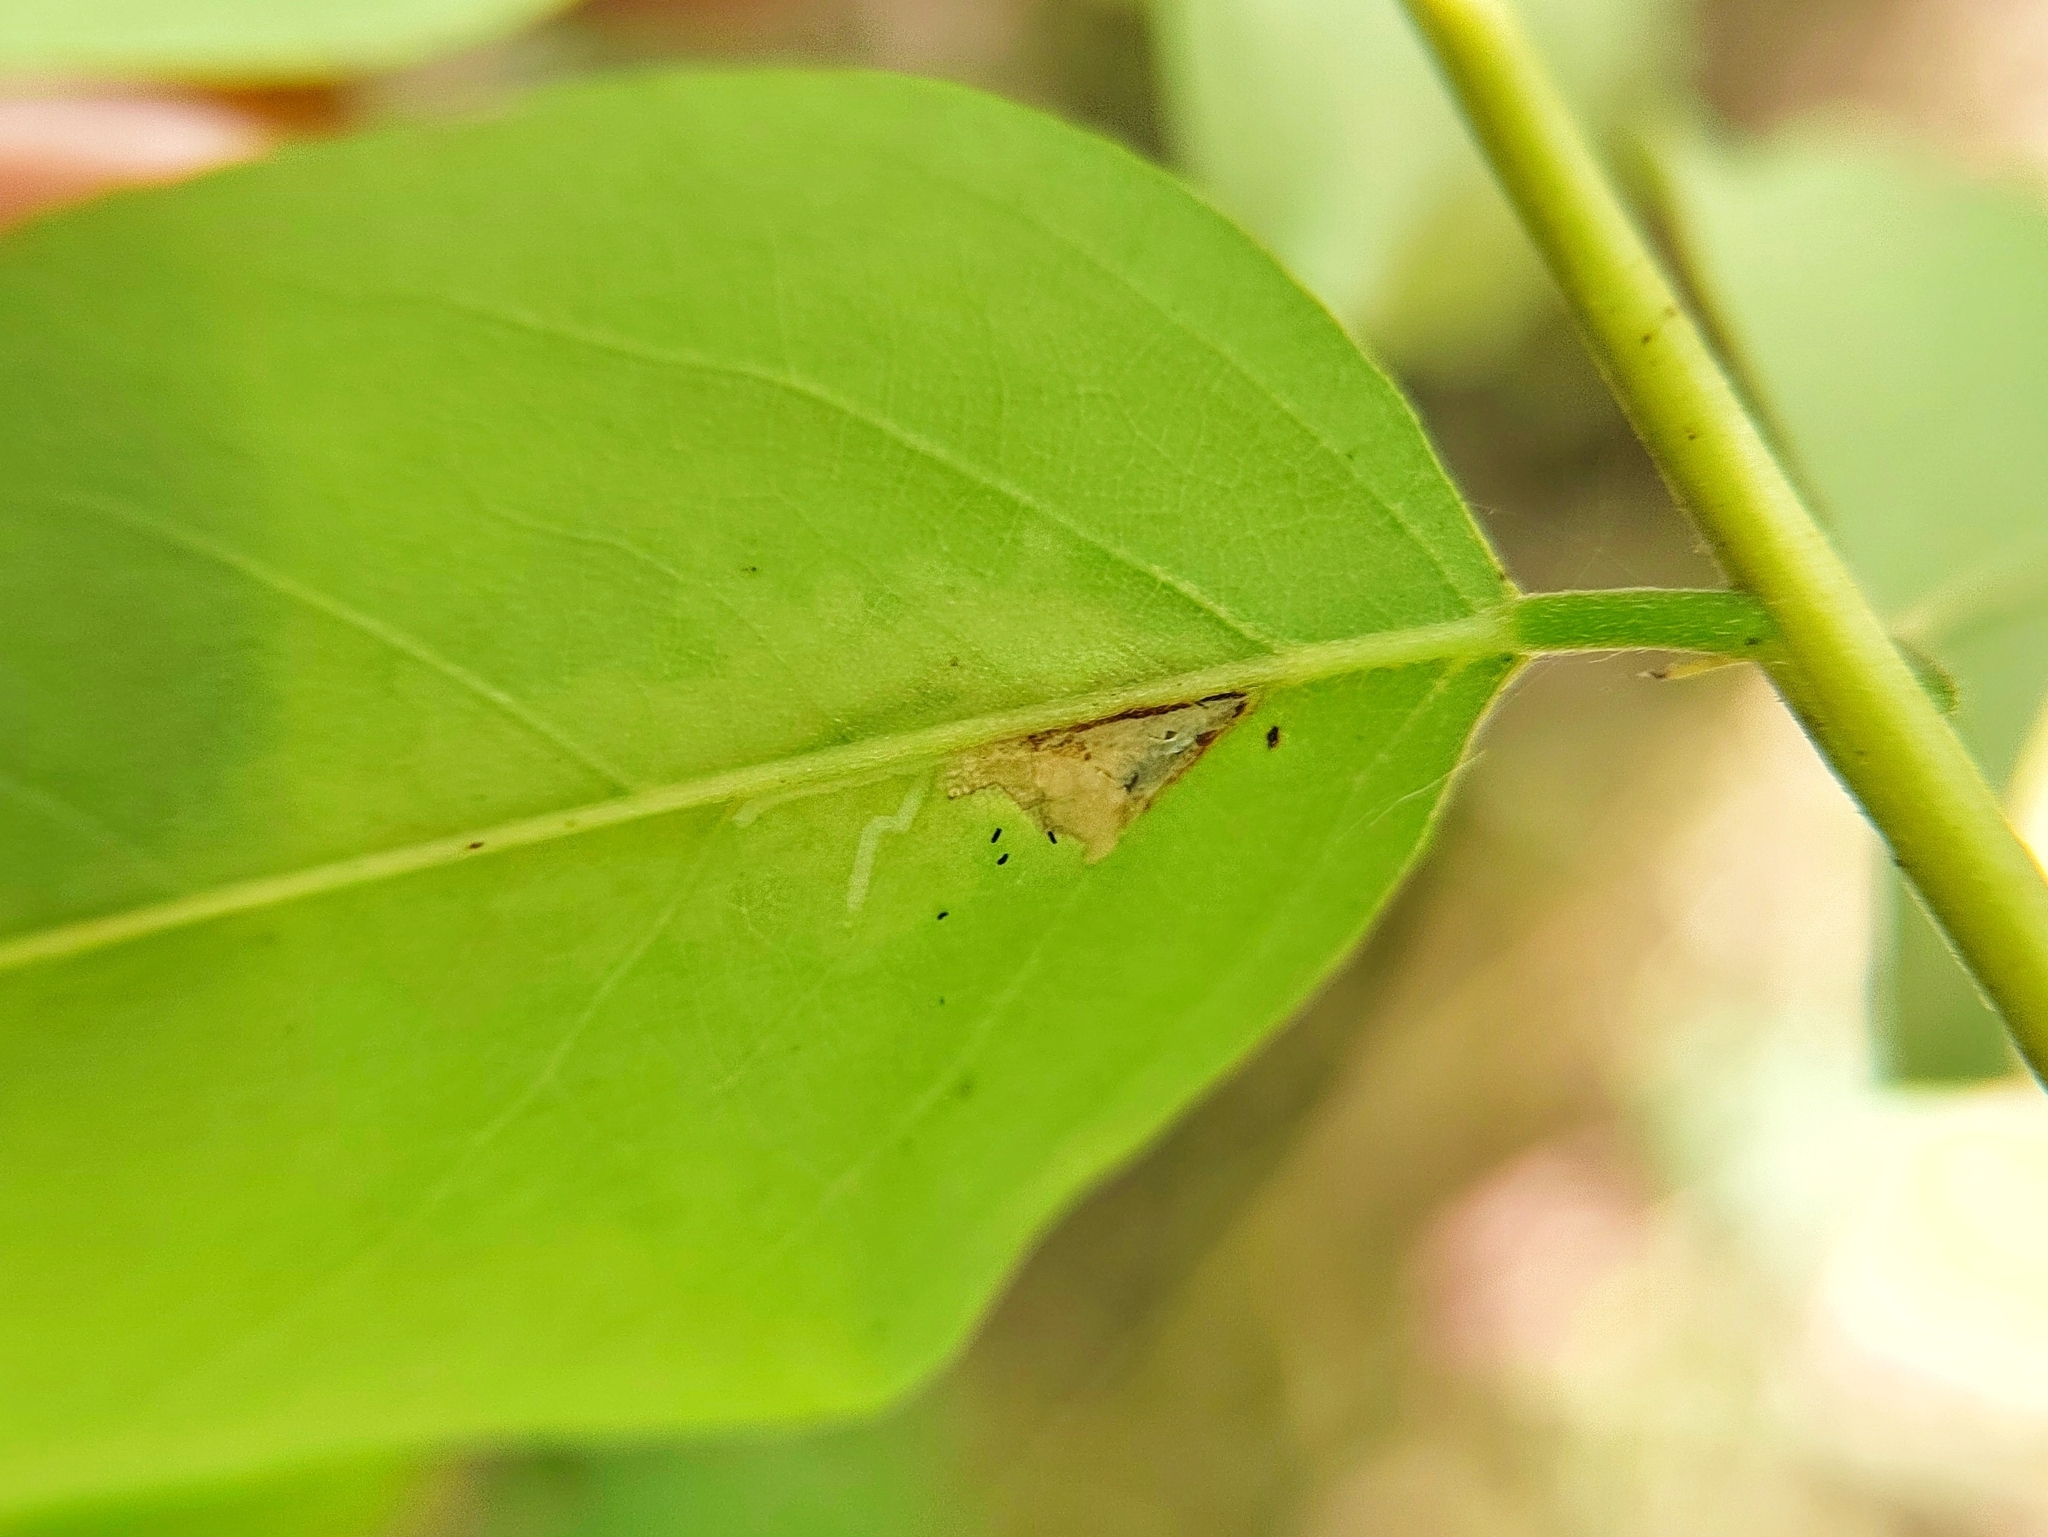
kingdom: Animalia
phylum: Arthropoda
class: Insecta
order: Lepidoptera
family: Gracillariidae
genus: Parectopa
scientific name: Parectopa robiniella
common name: Locust digitate leafminer
